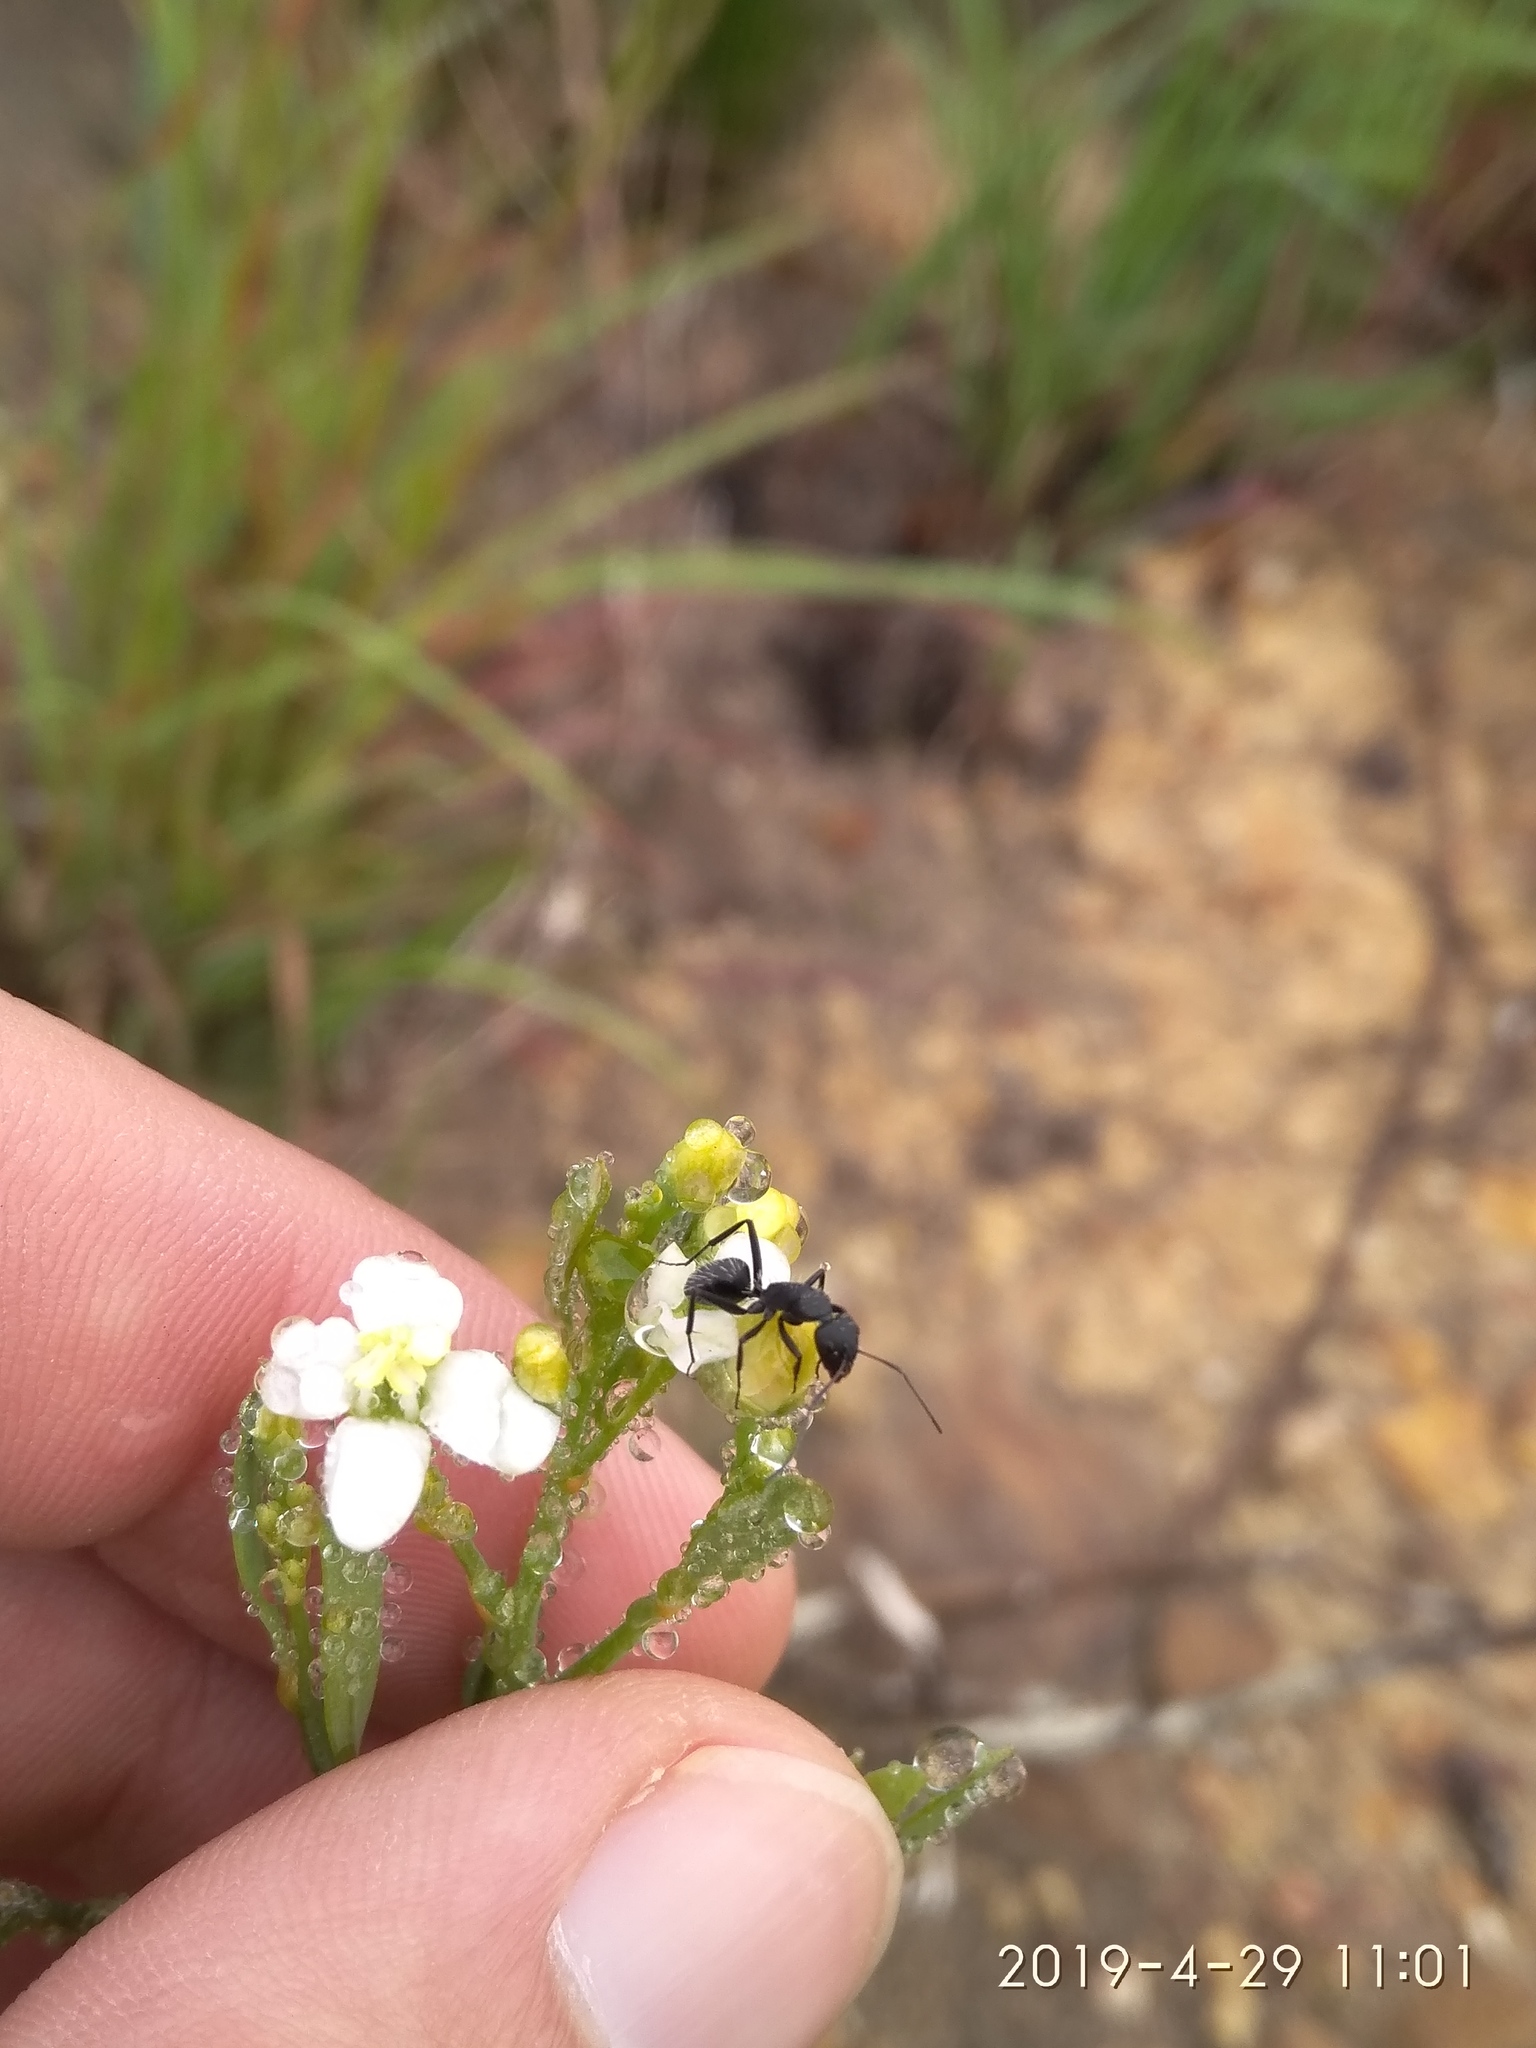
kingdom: Animalia
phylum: Arthropoda
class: Insecta
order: Hymenoptera
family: Formicidae
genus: Camponotus
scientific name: Camponotus niveosetosus
